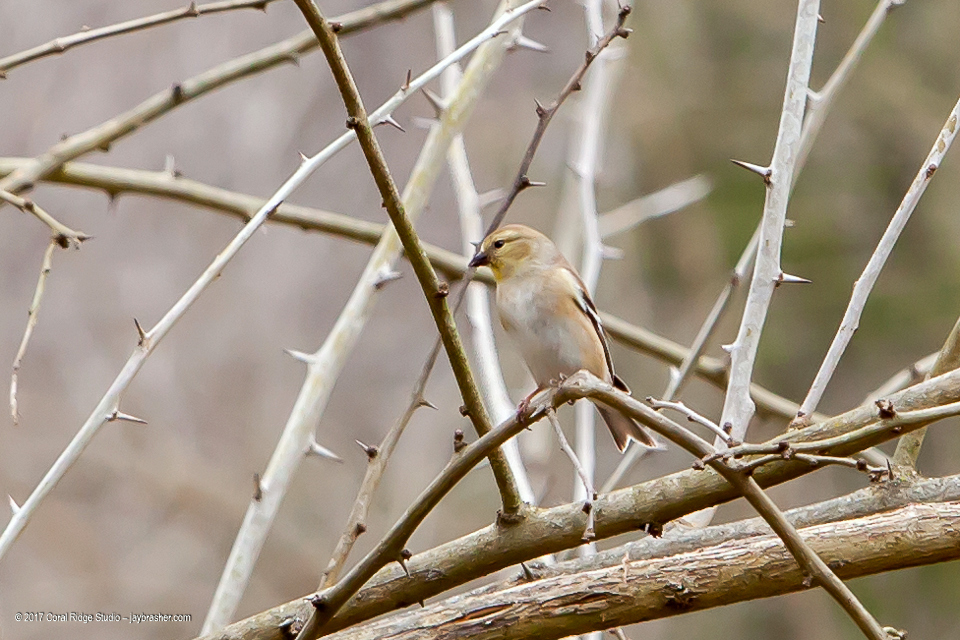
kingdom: Animalia
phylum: Chordata
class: Aves
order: Passeriformes
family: Fringillidae
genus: Spinus
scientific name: Spinus tristis
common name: American goldfinch
